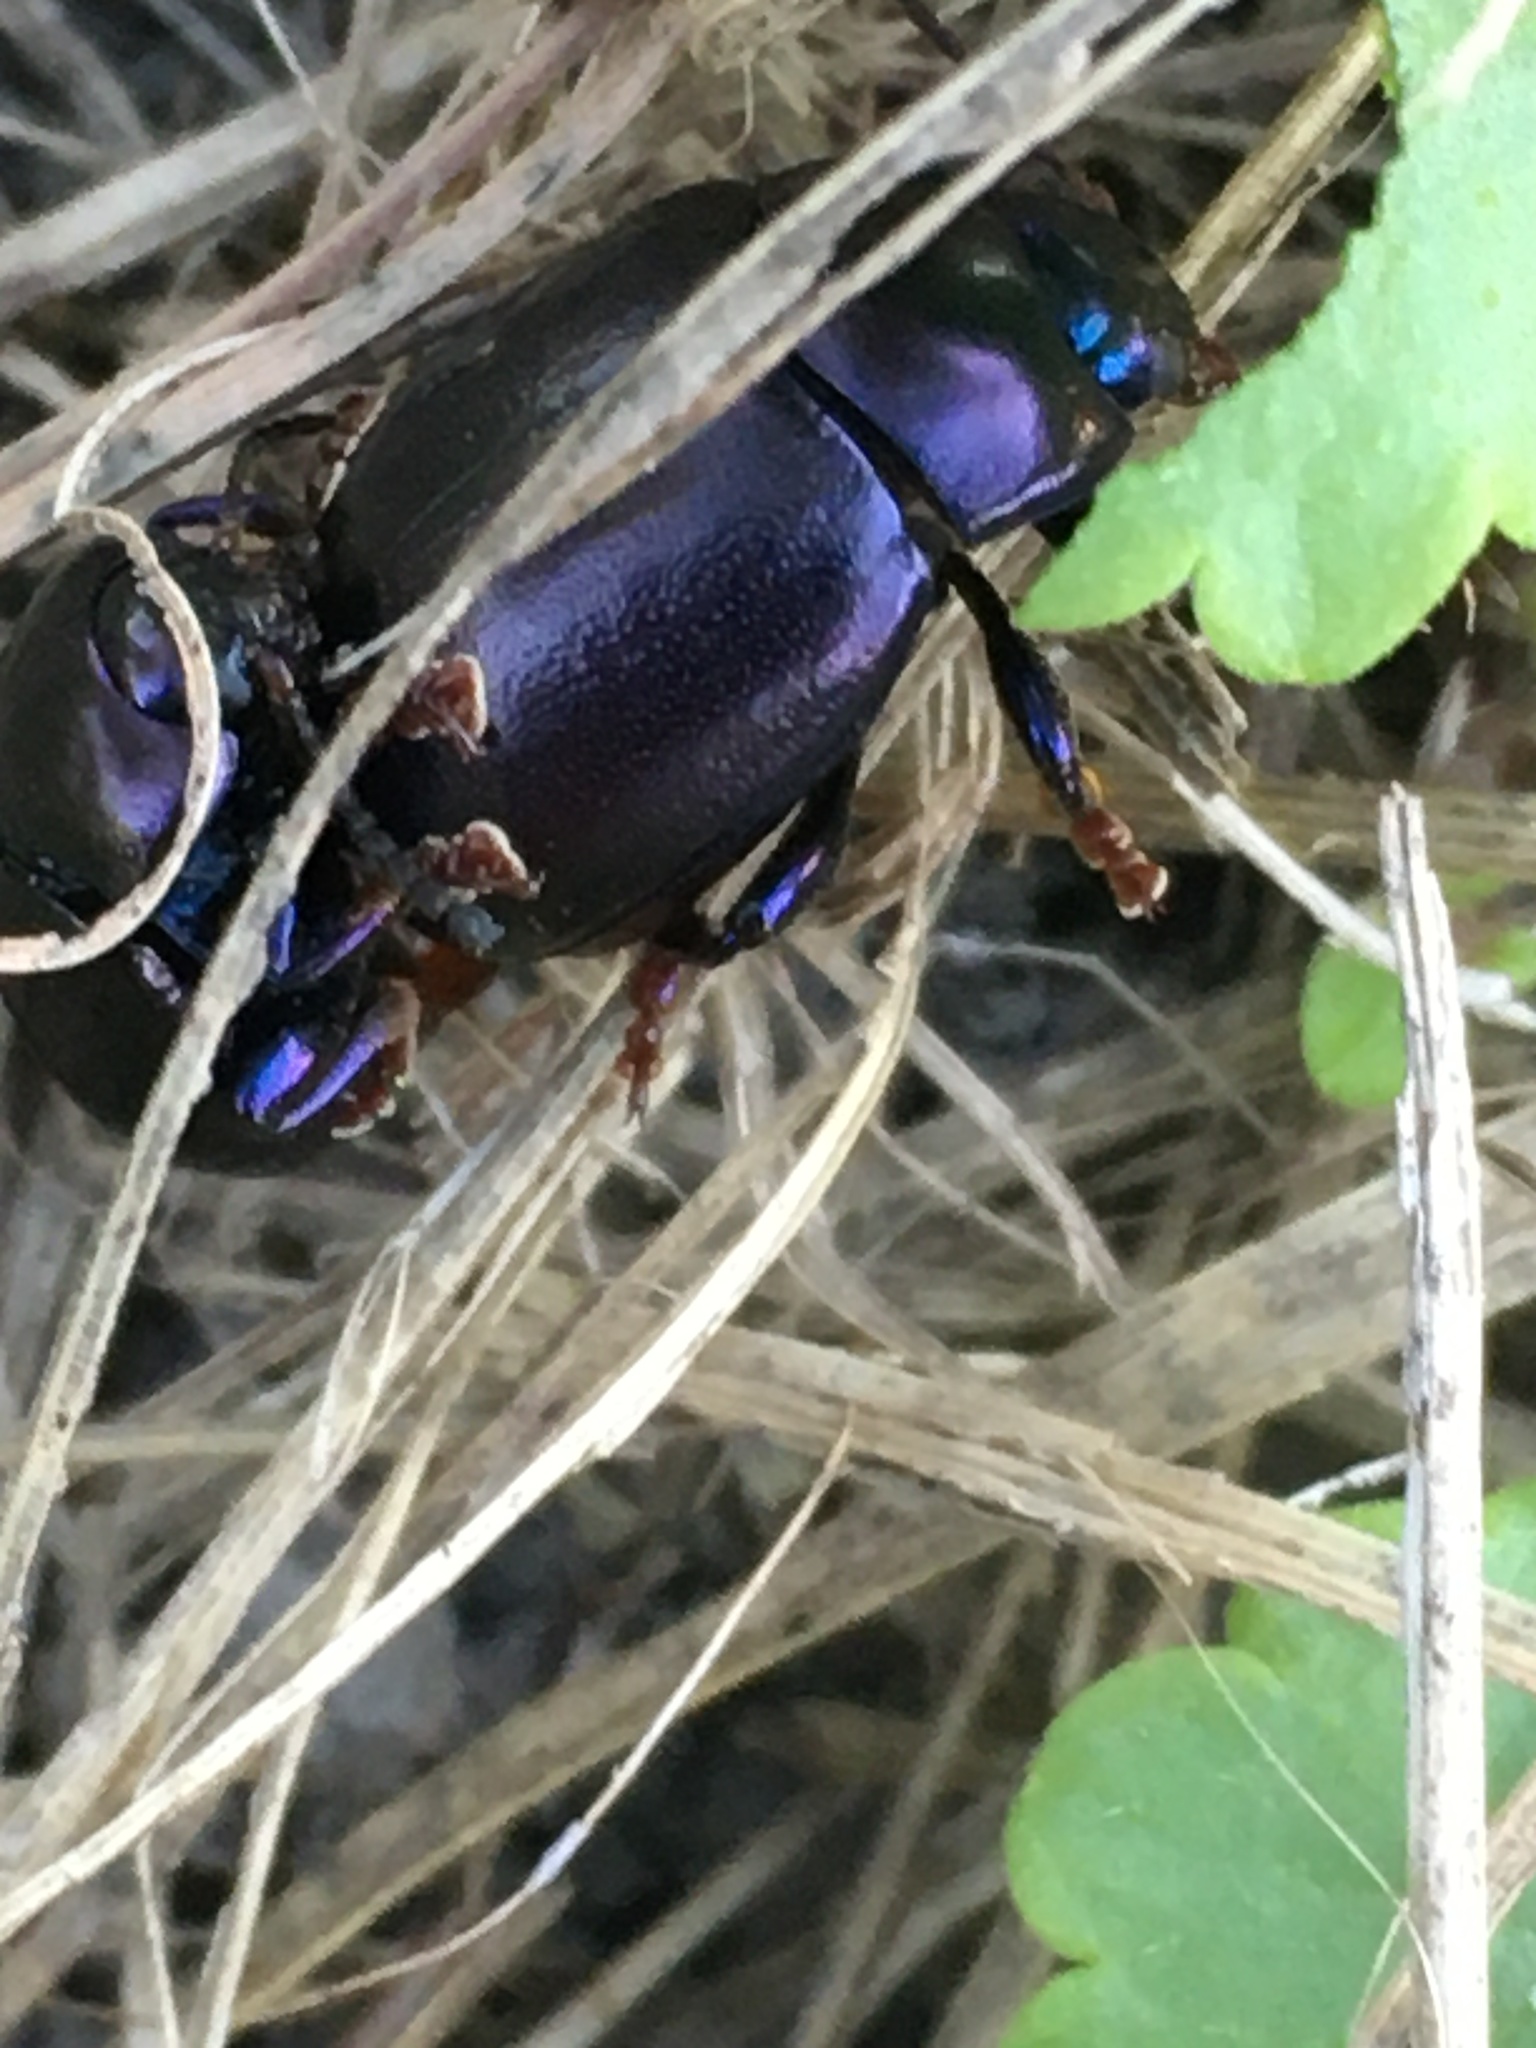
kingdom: Animalia
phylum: Arthropoda
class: Insecta
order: Coleoptera
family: Chrysomelidae
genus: Chrysolina
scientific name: Chrysolina sturmi
